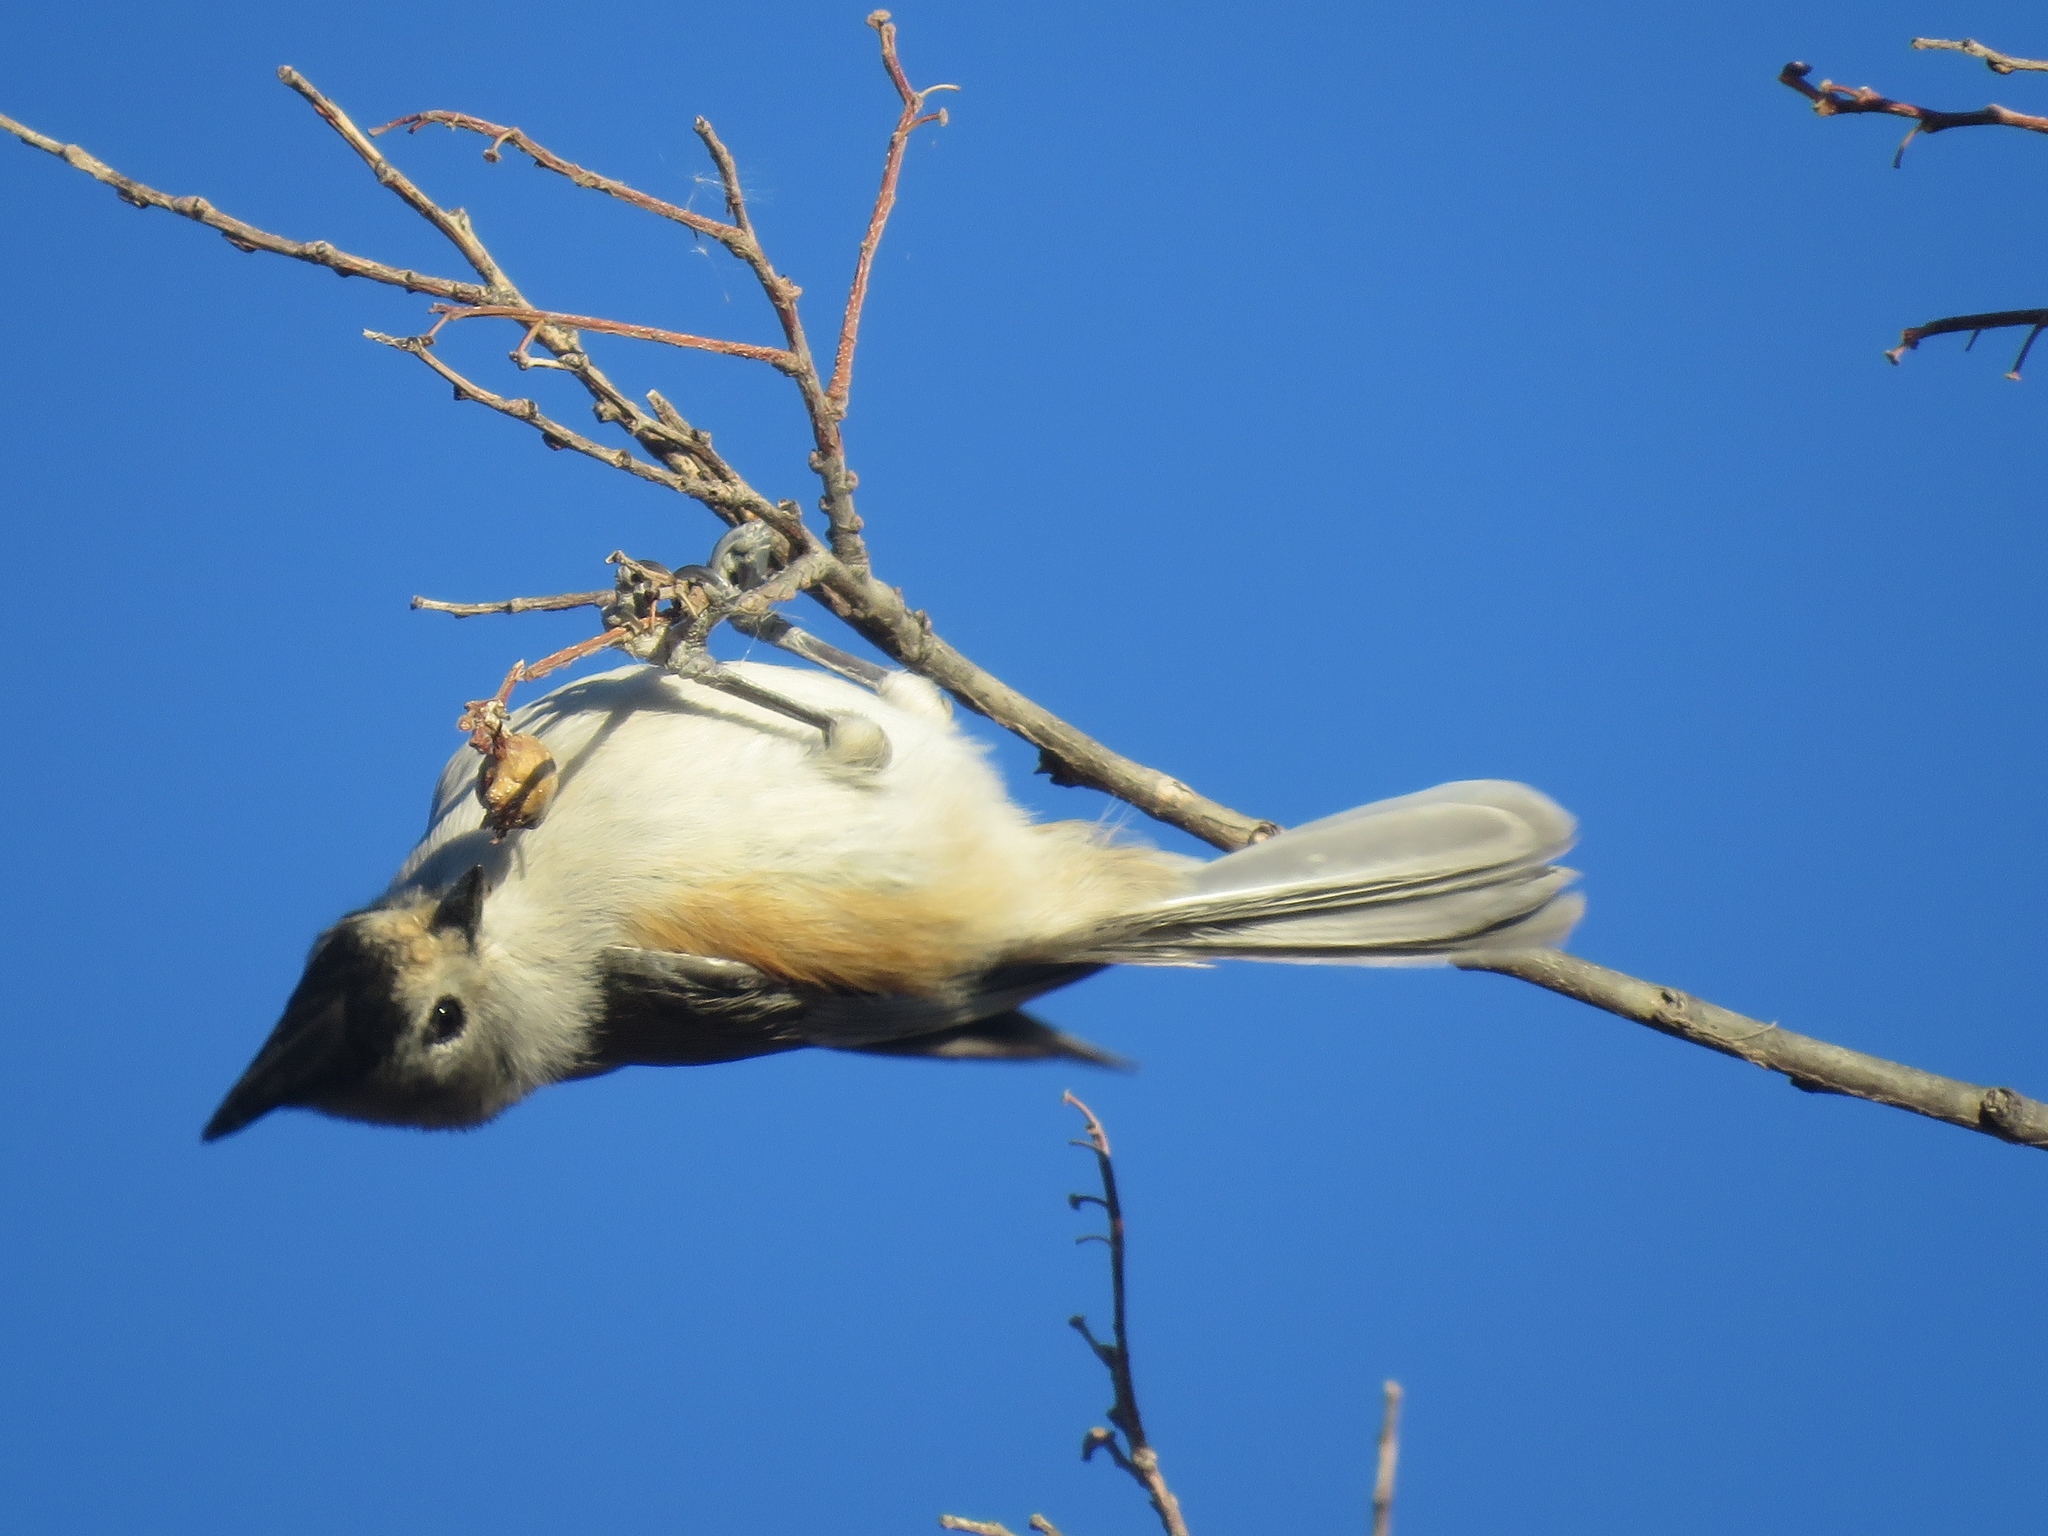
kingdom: Animalia
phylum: Chordata
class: Aves
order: Passeriformes
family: Paridae
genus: Baeolophus
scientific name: Baeolophus atricristatus
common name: Black-crested titmouse
